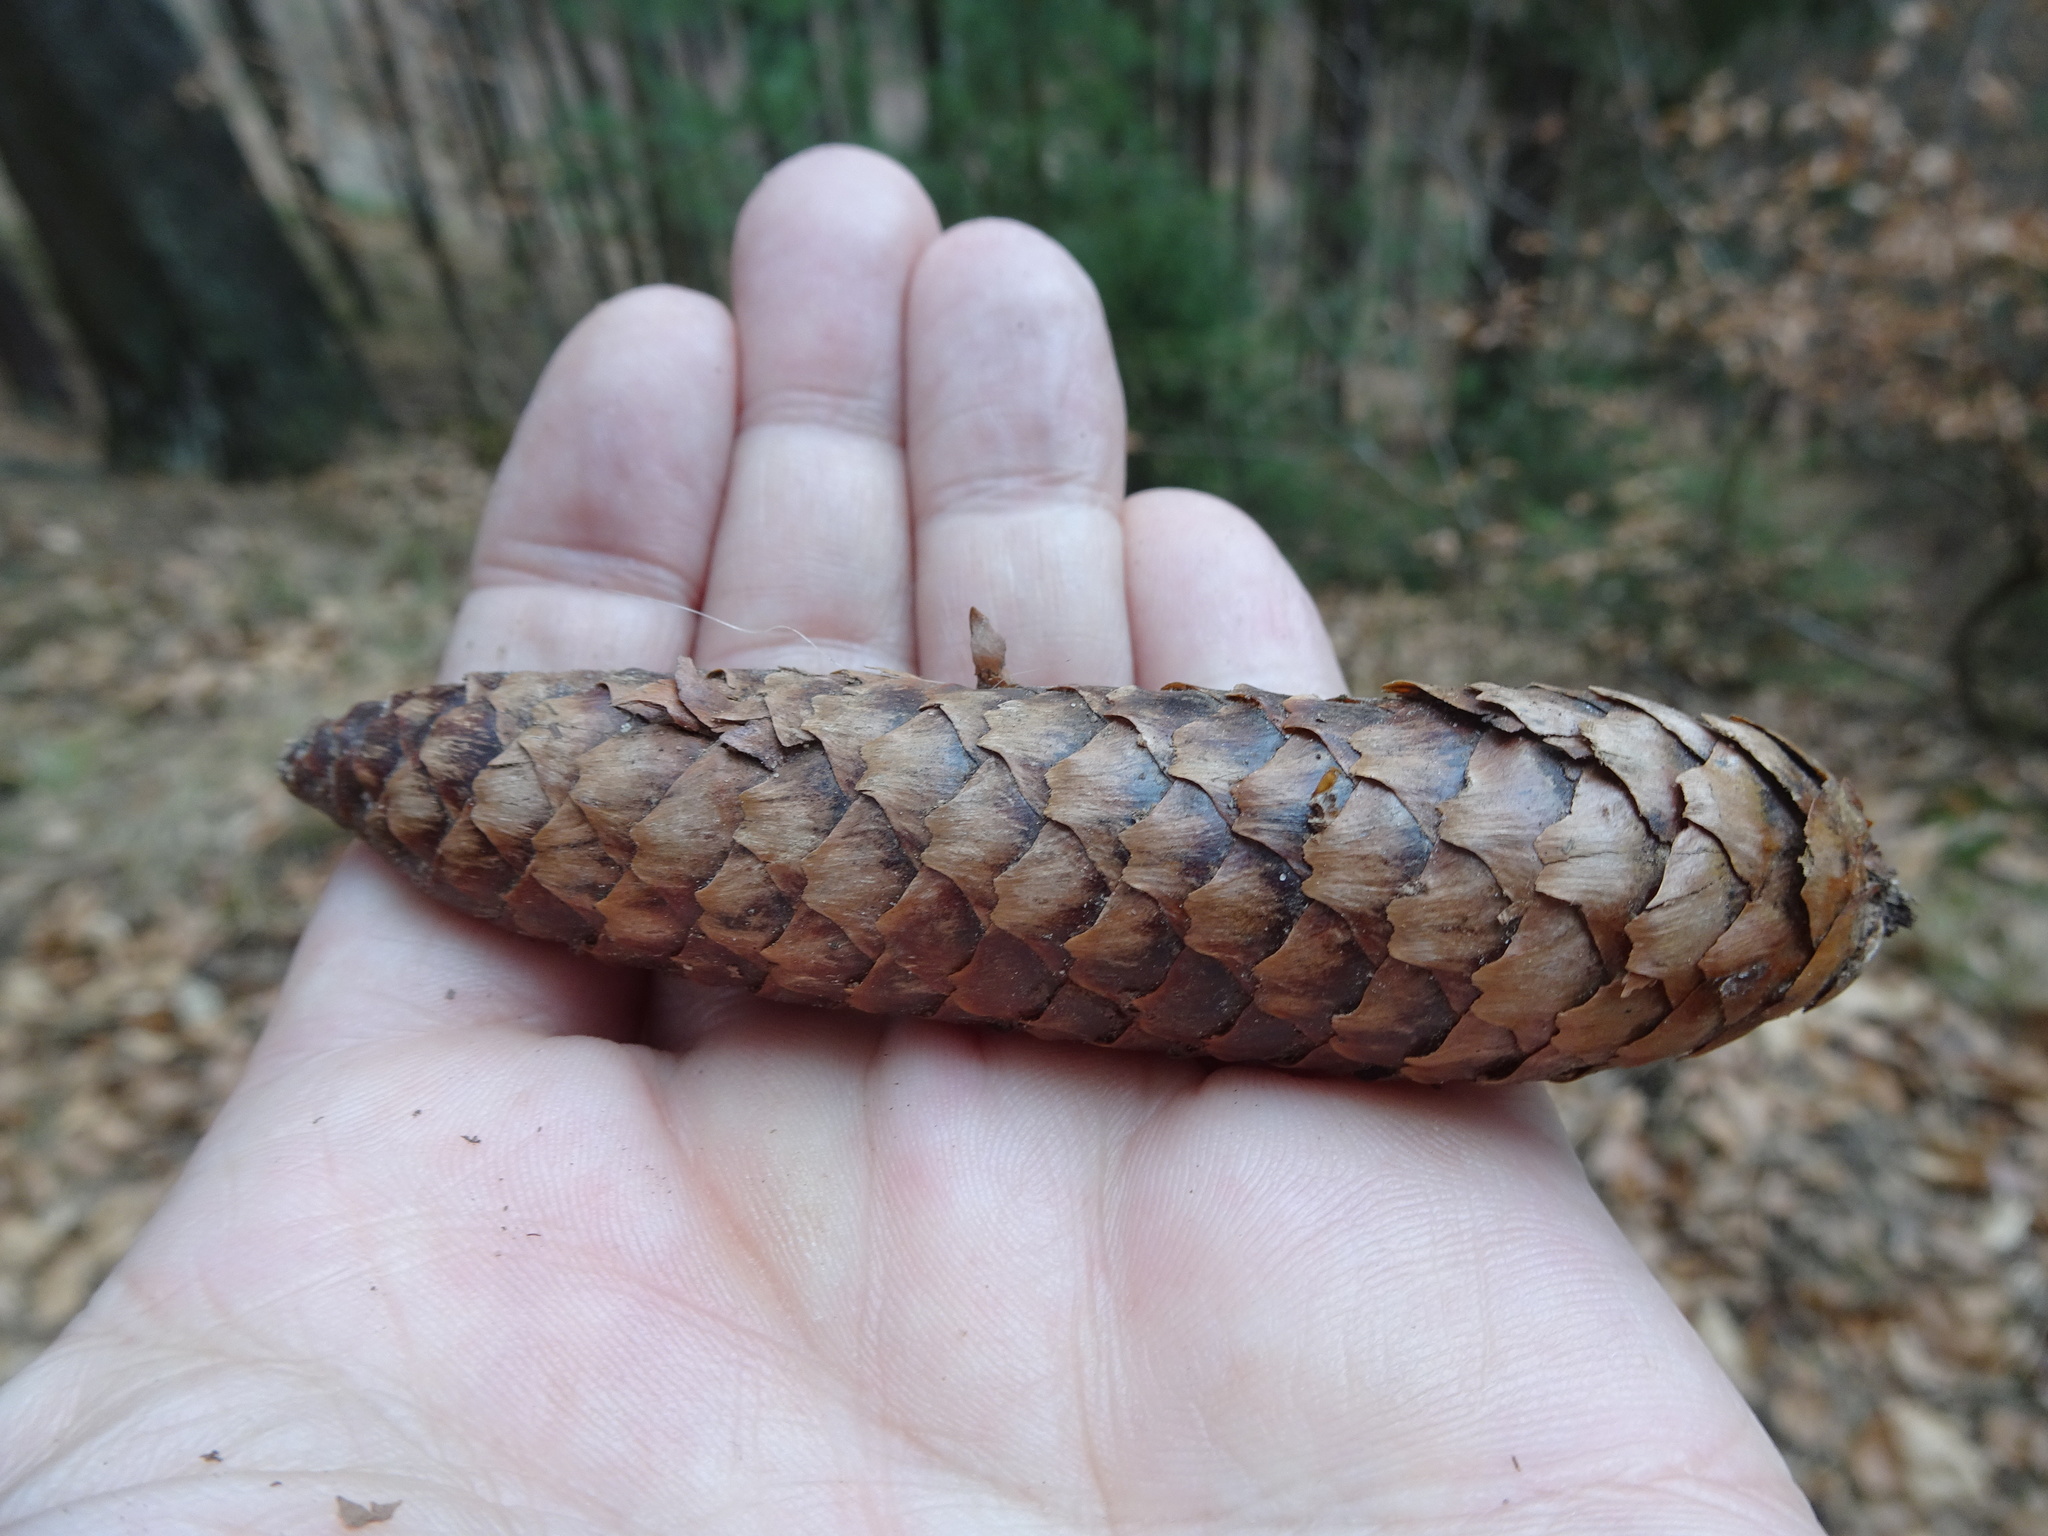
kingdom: Plantae
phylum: Tracheophyta
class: Pinopsida
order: Pinales
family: Pinaceae
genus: Picea
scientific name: Picea abies
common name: Norway spruce
